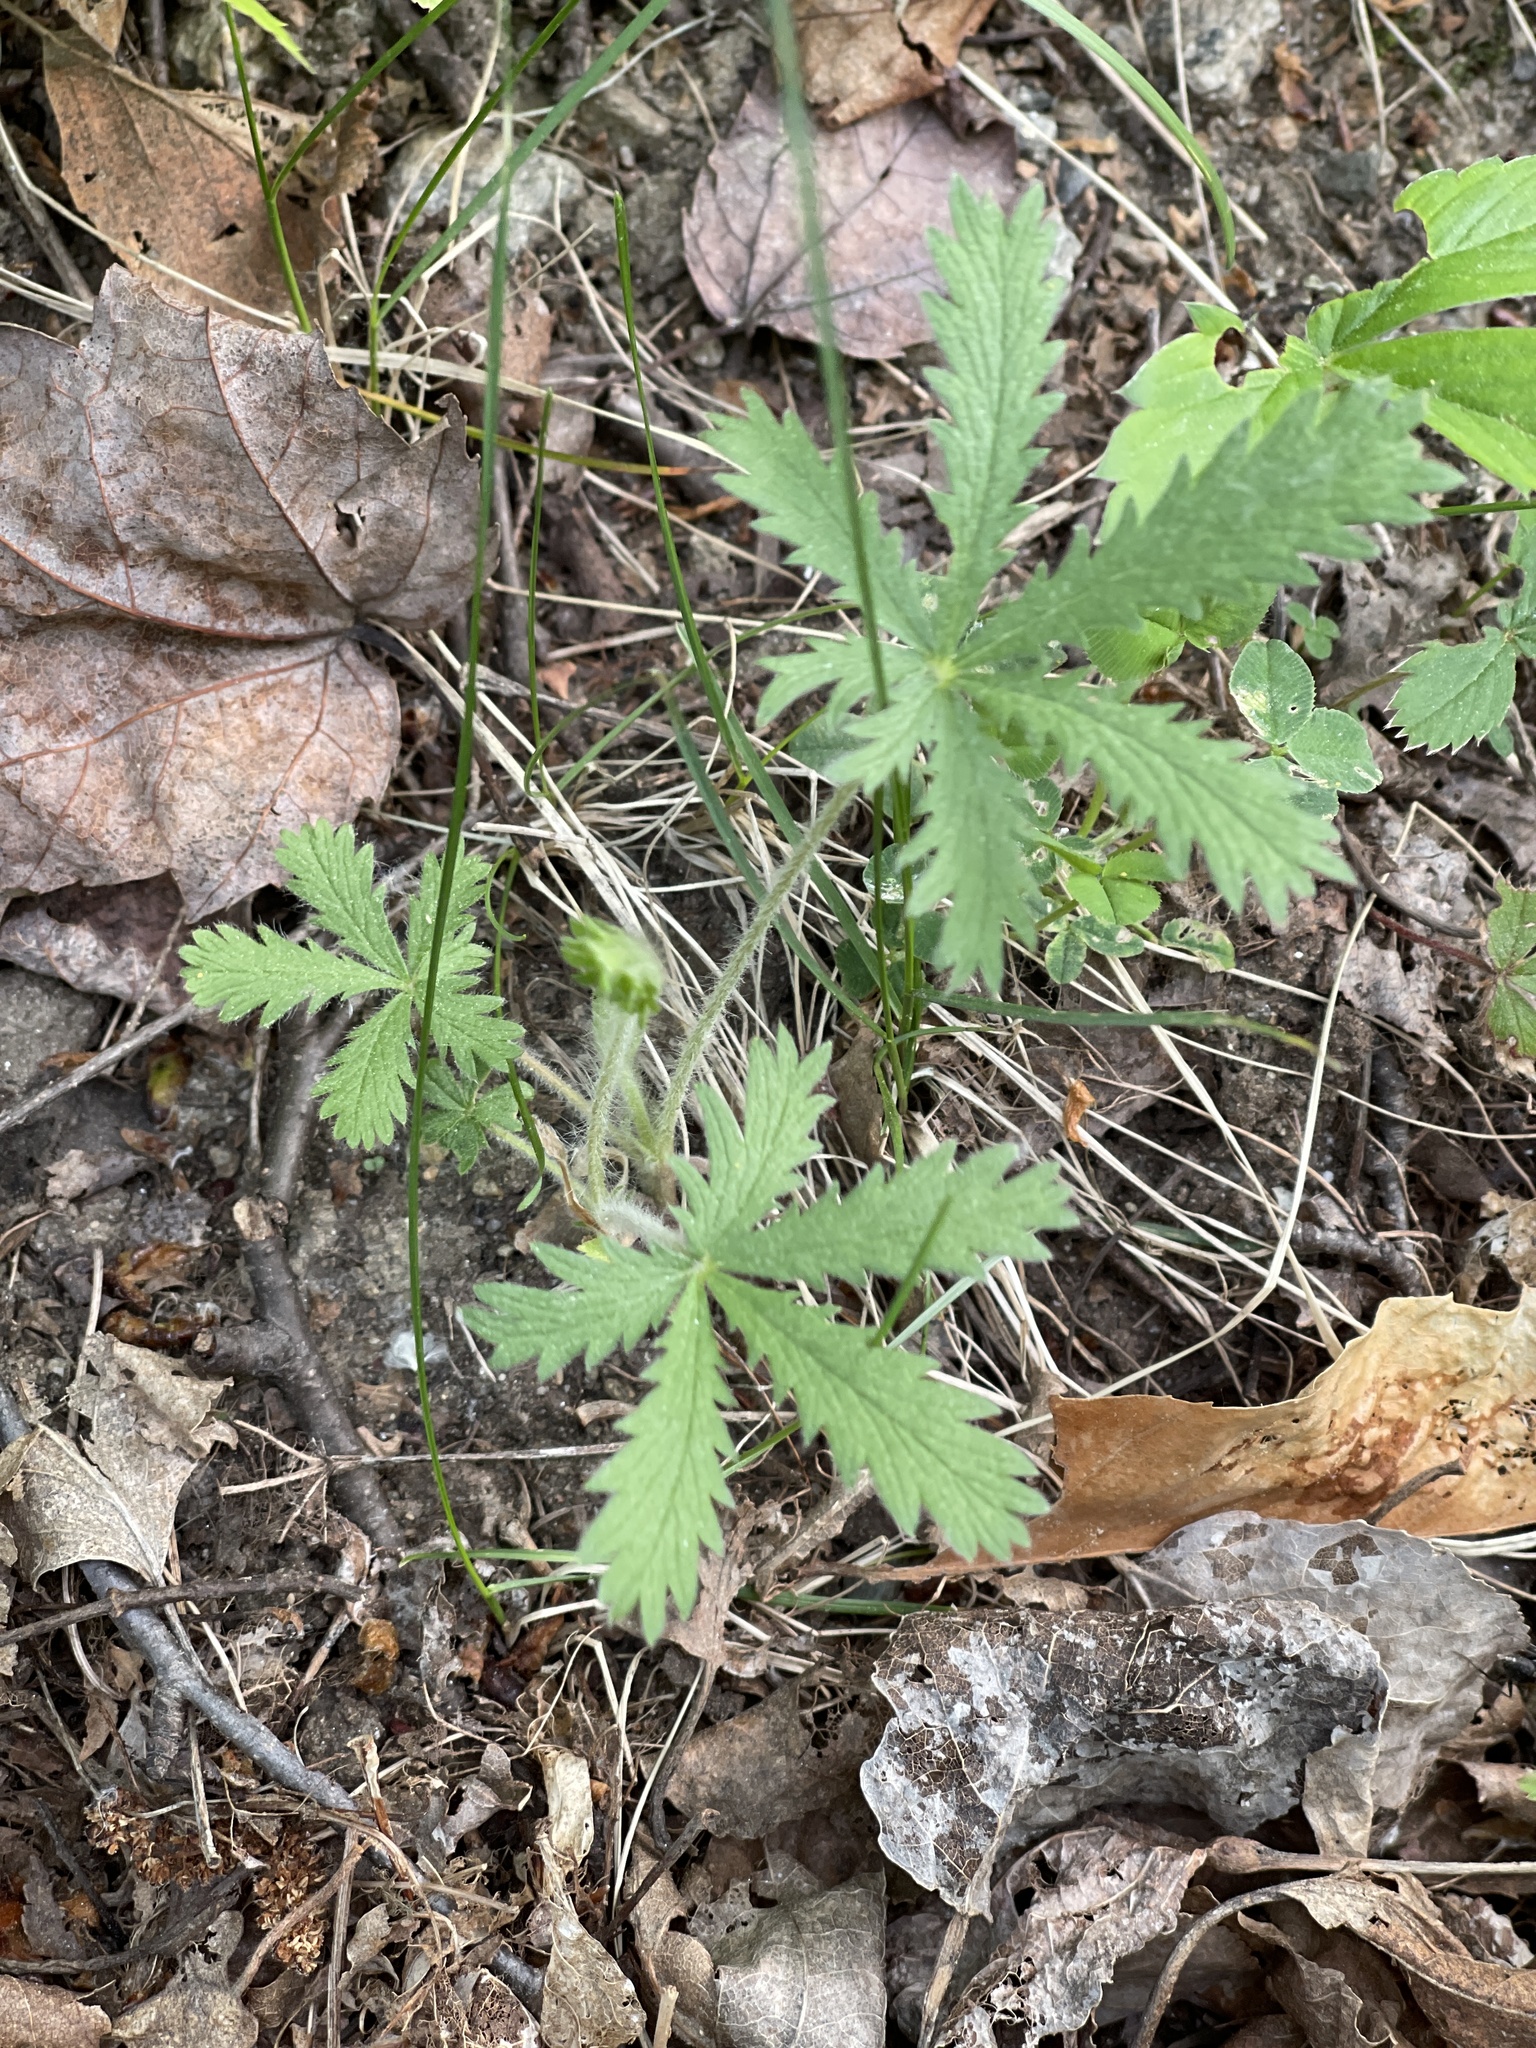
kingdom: Plantae
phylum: Tracheophyta
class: Magnoliopsida
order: Rosales
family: Rosaceae
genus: Potentilla
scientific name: Potentilla recta
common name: Sulphur cinquefoil
